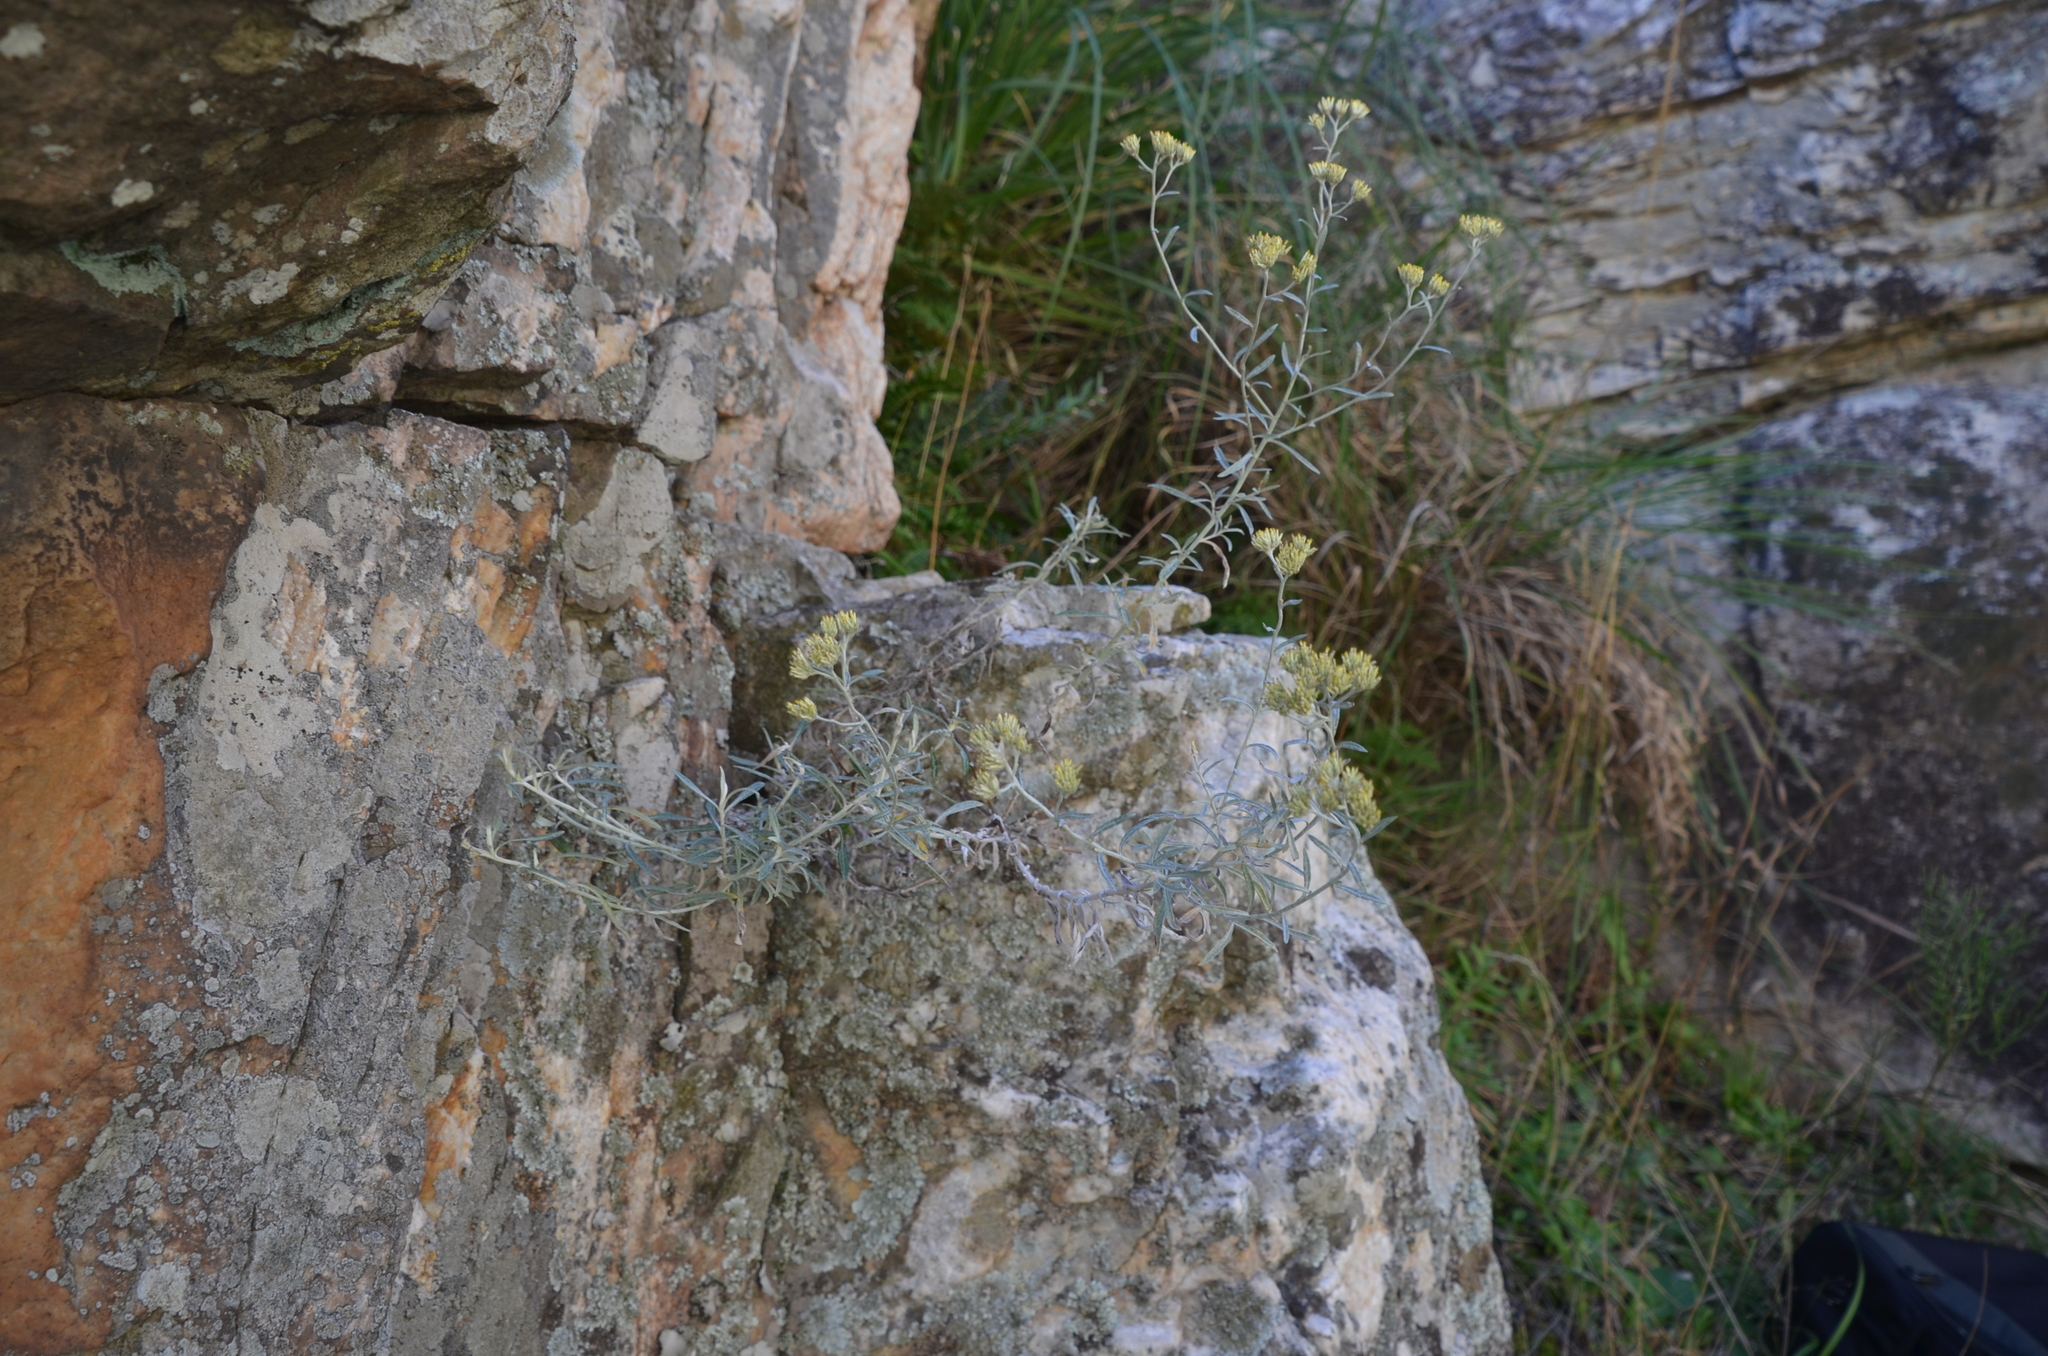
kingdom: Plantae
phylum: Tracheophyta
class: Magnoliopsida
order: Asterales
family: Asteraceae
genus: Achyrocline
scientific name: Achyrocline satureioides
